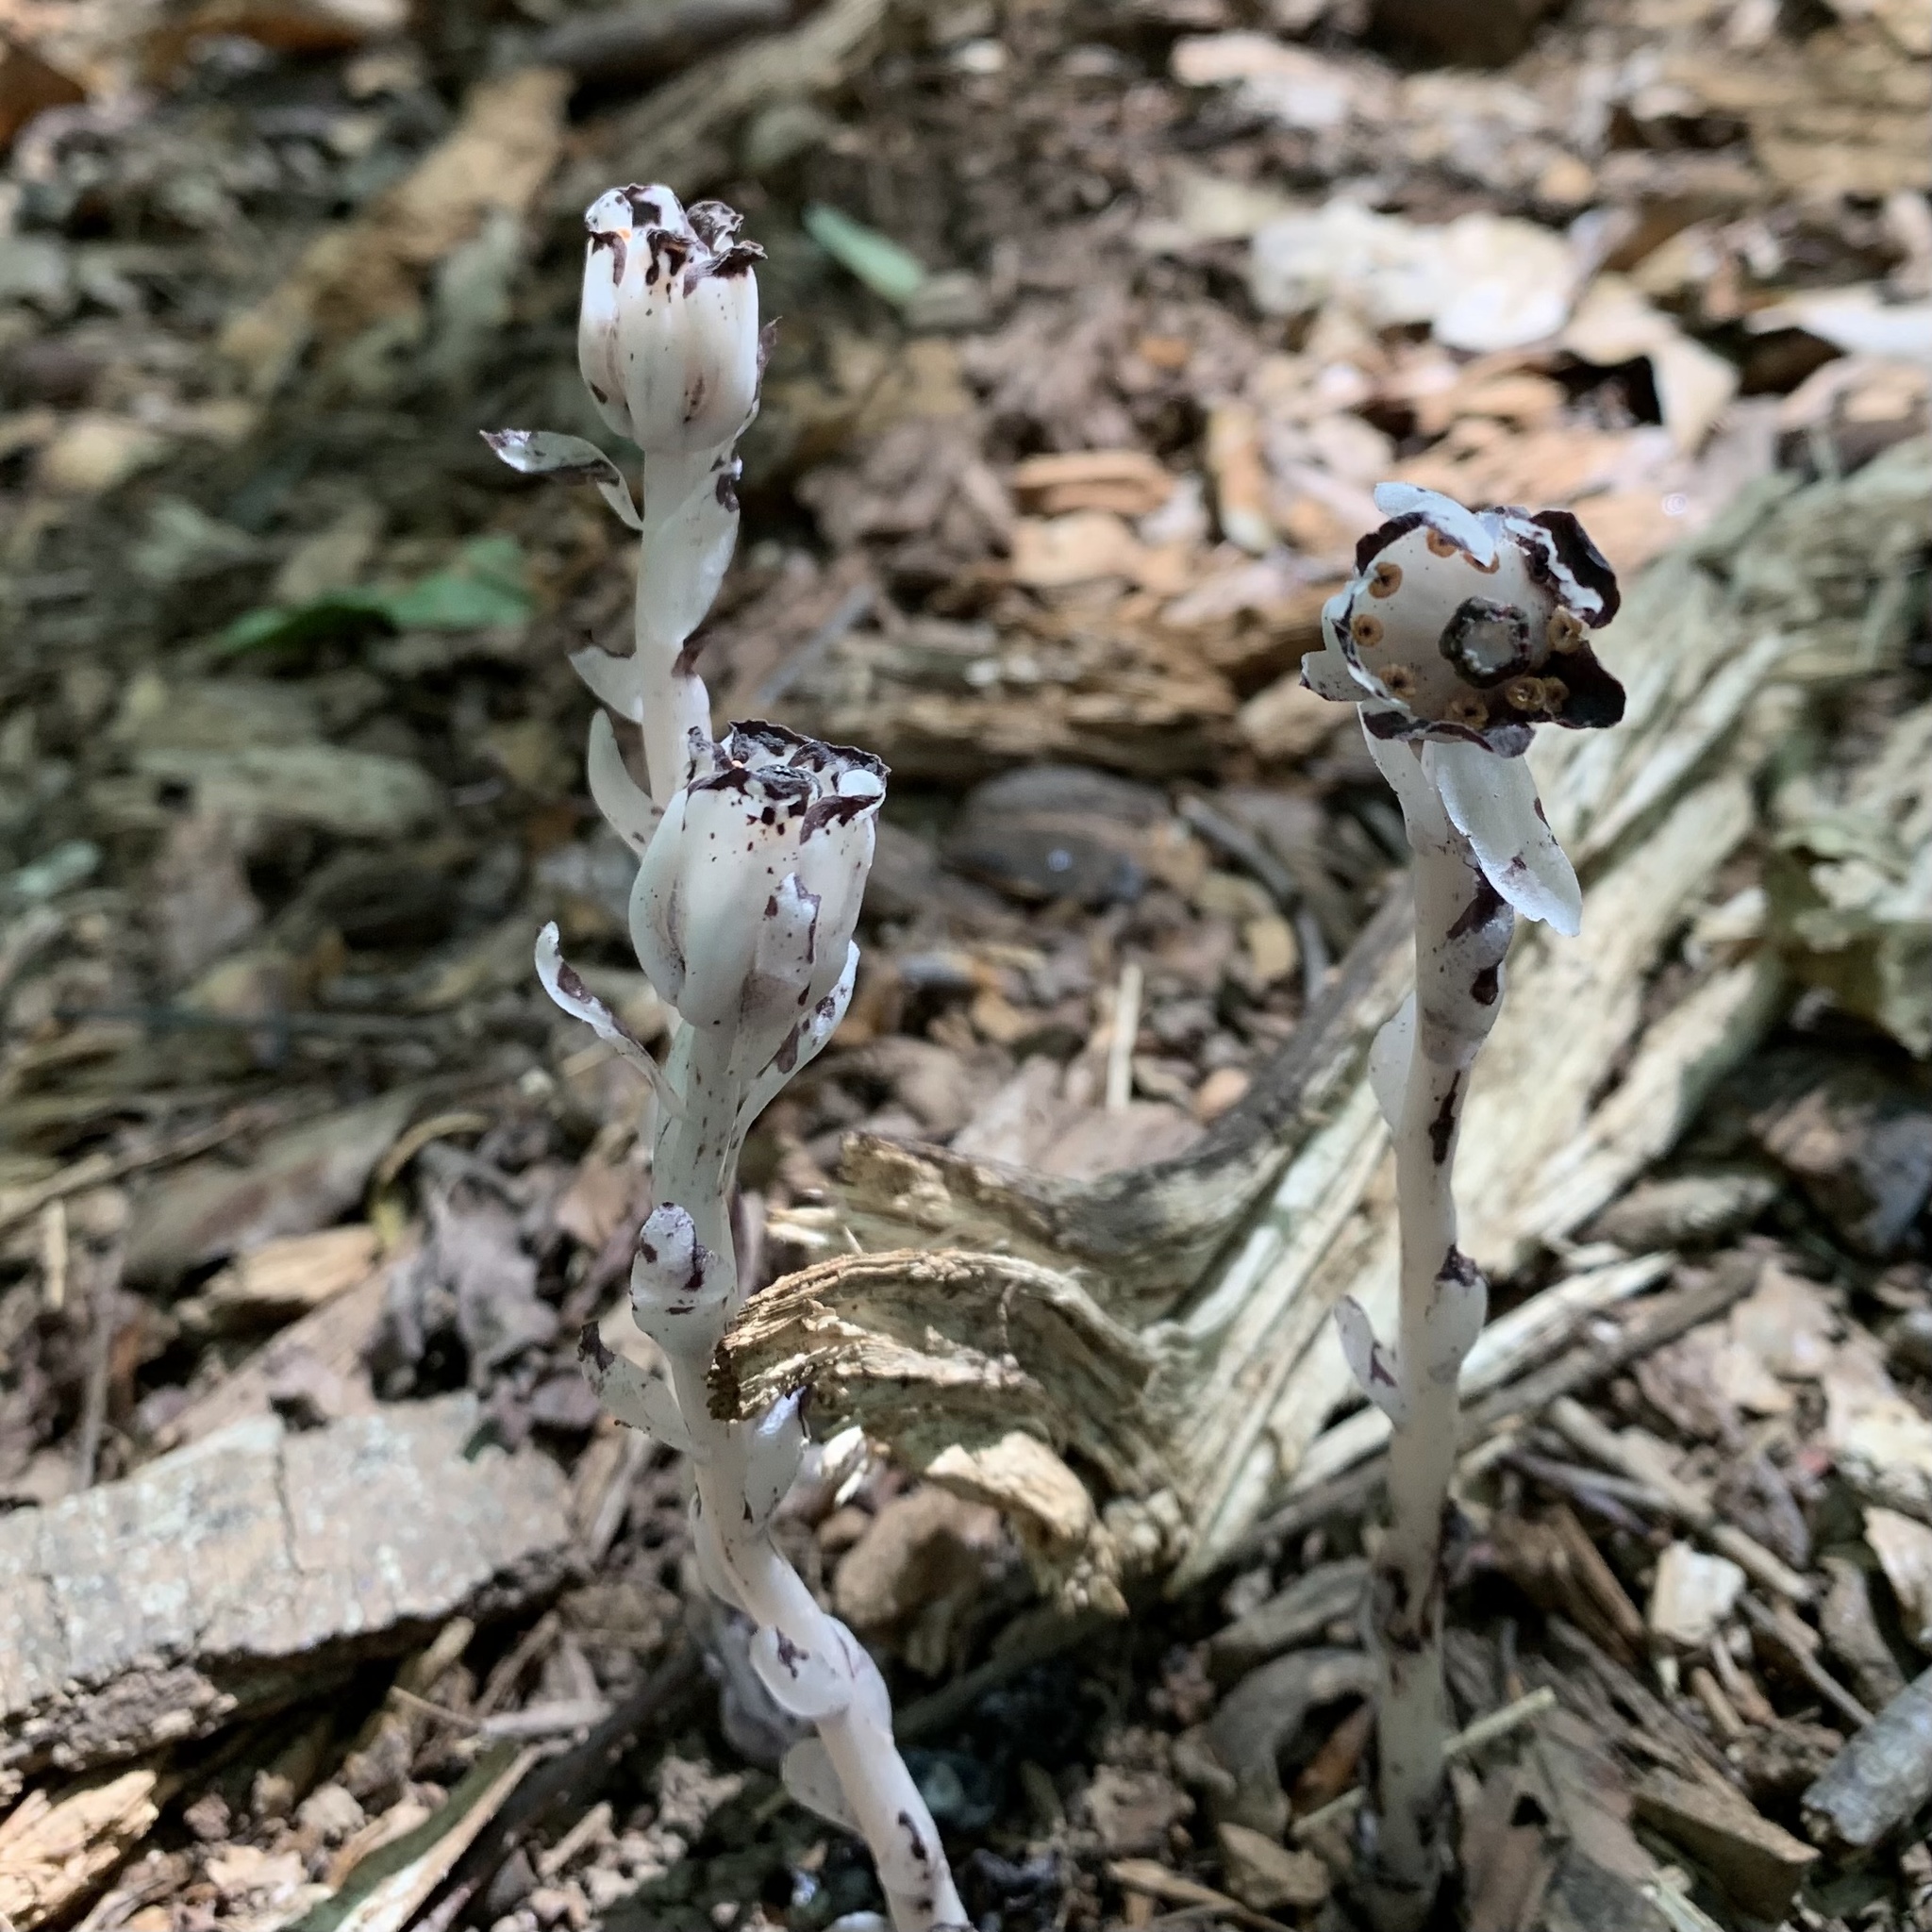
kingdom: Plantae
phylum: Tracheophyta
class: Magnoliopsida
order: Ericales
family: Ericaceae
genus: Monotropa
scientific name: Monotropa uniflora
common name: Convulsion root
